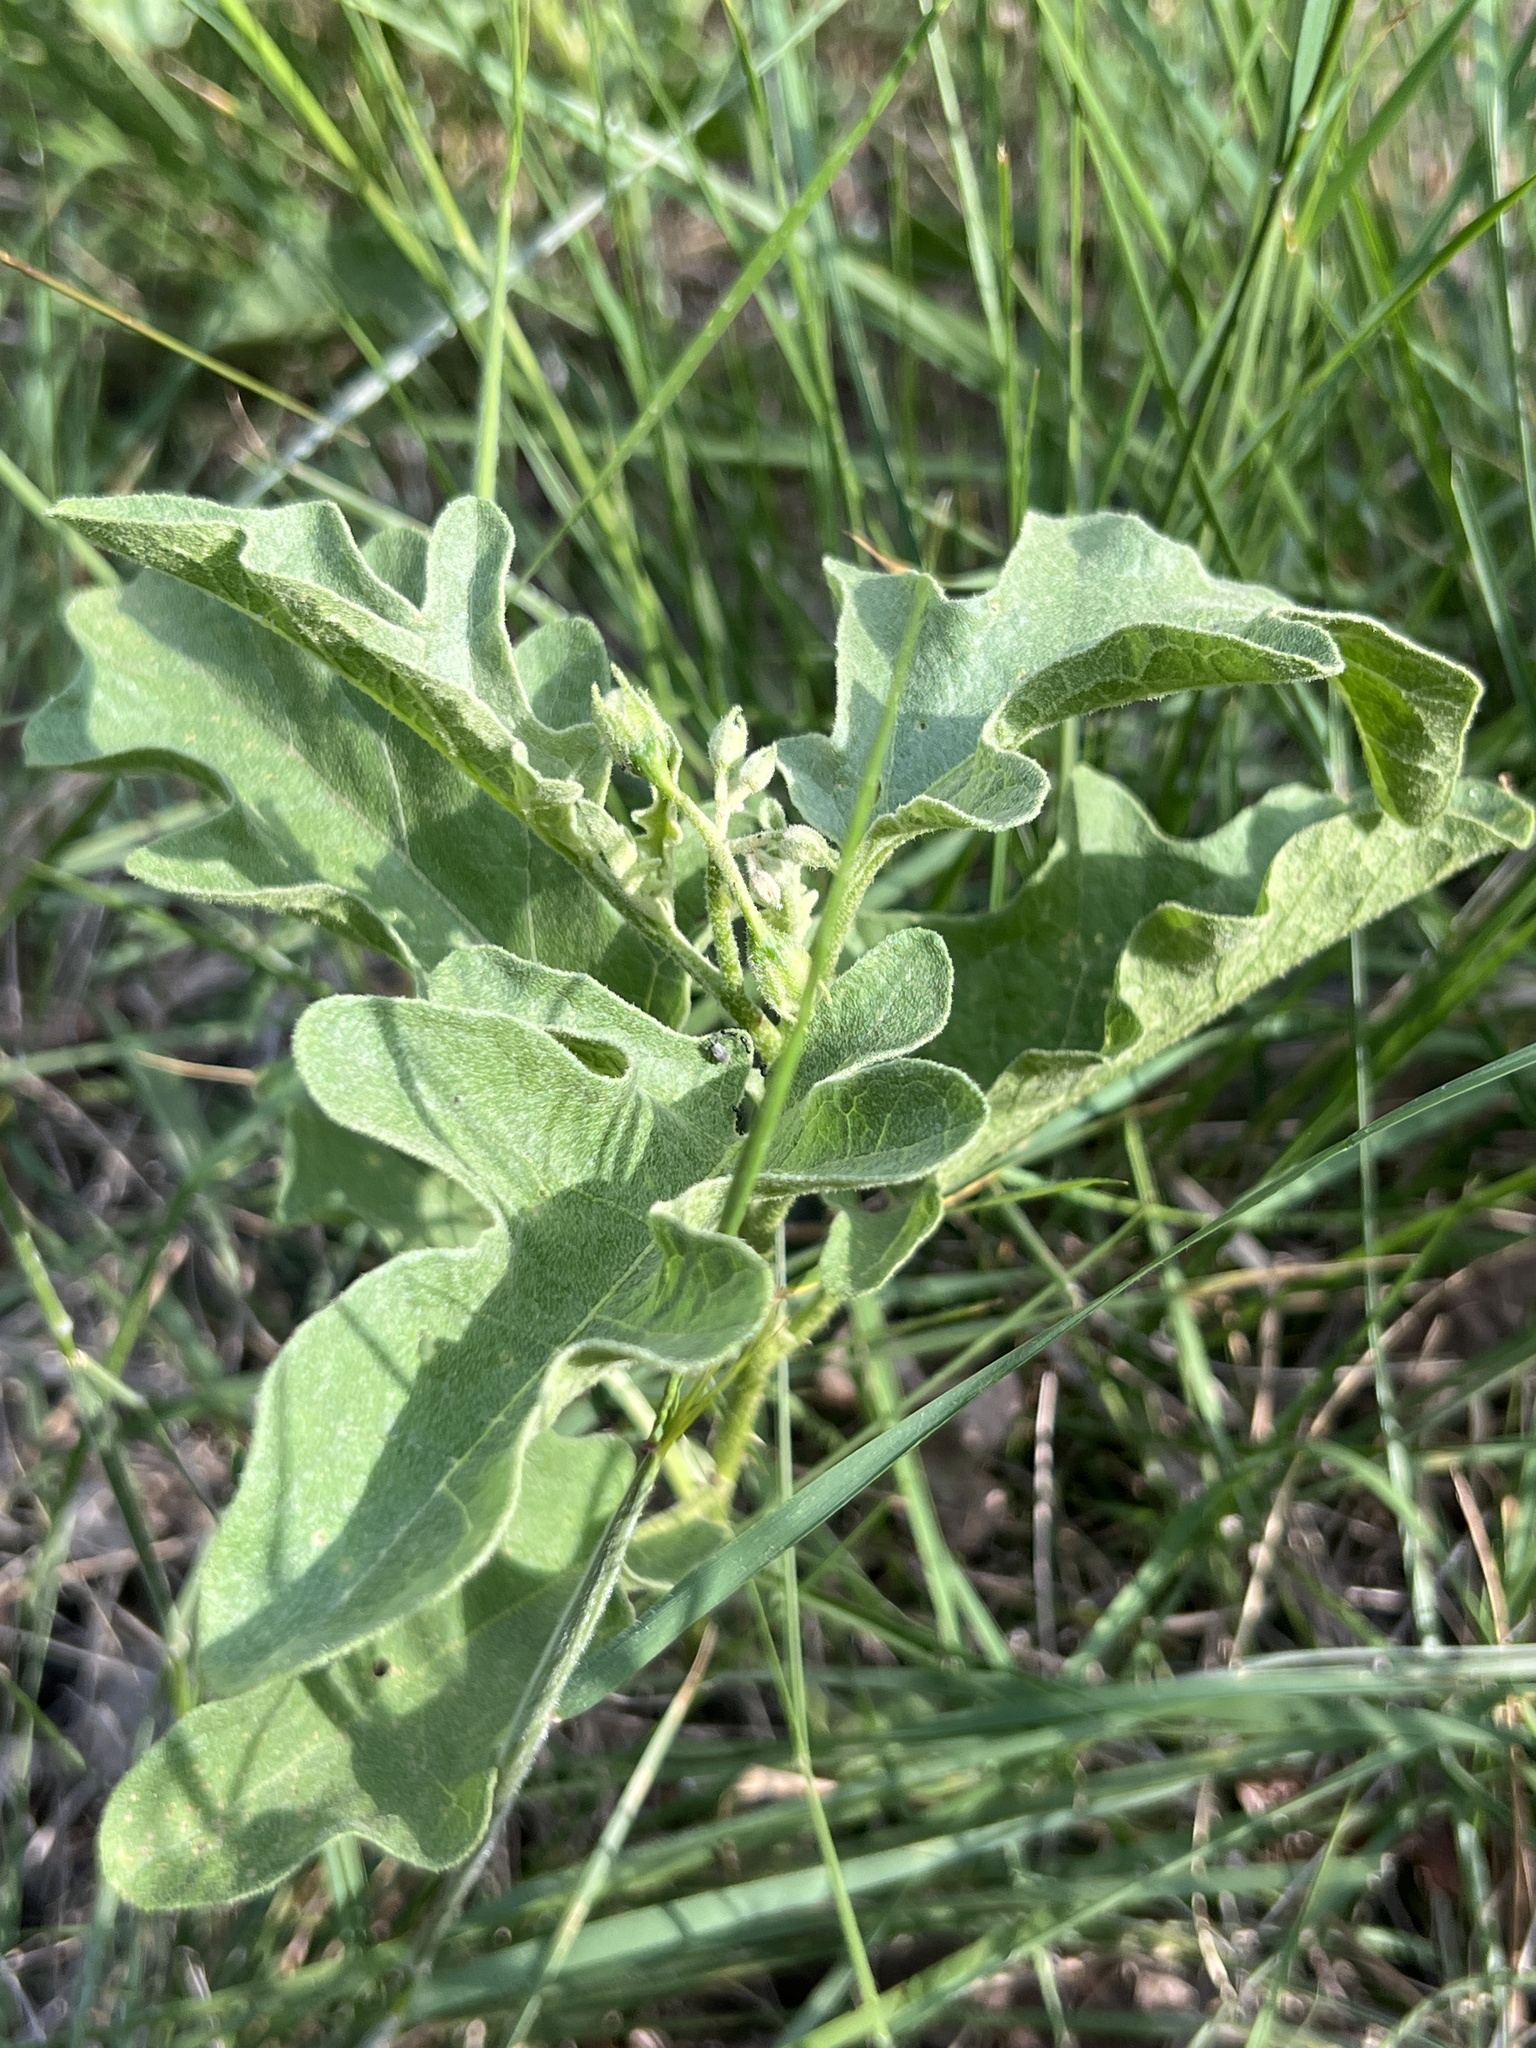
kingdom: Plantae
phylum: Tracheophyta
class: Magnoliopsida
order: Solanales
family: Solanaceae
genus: Solanum
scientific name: Solanum dimidiatum
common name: Carolina horse-nettle
